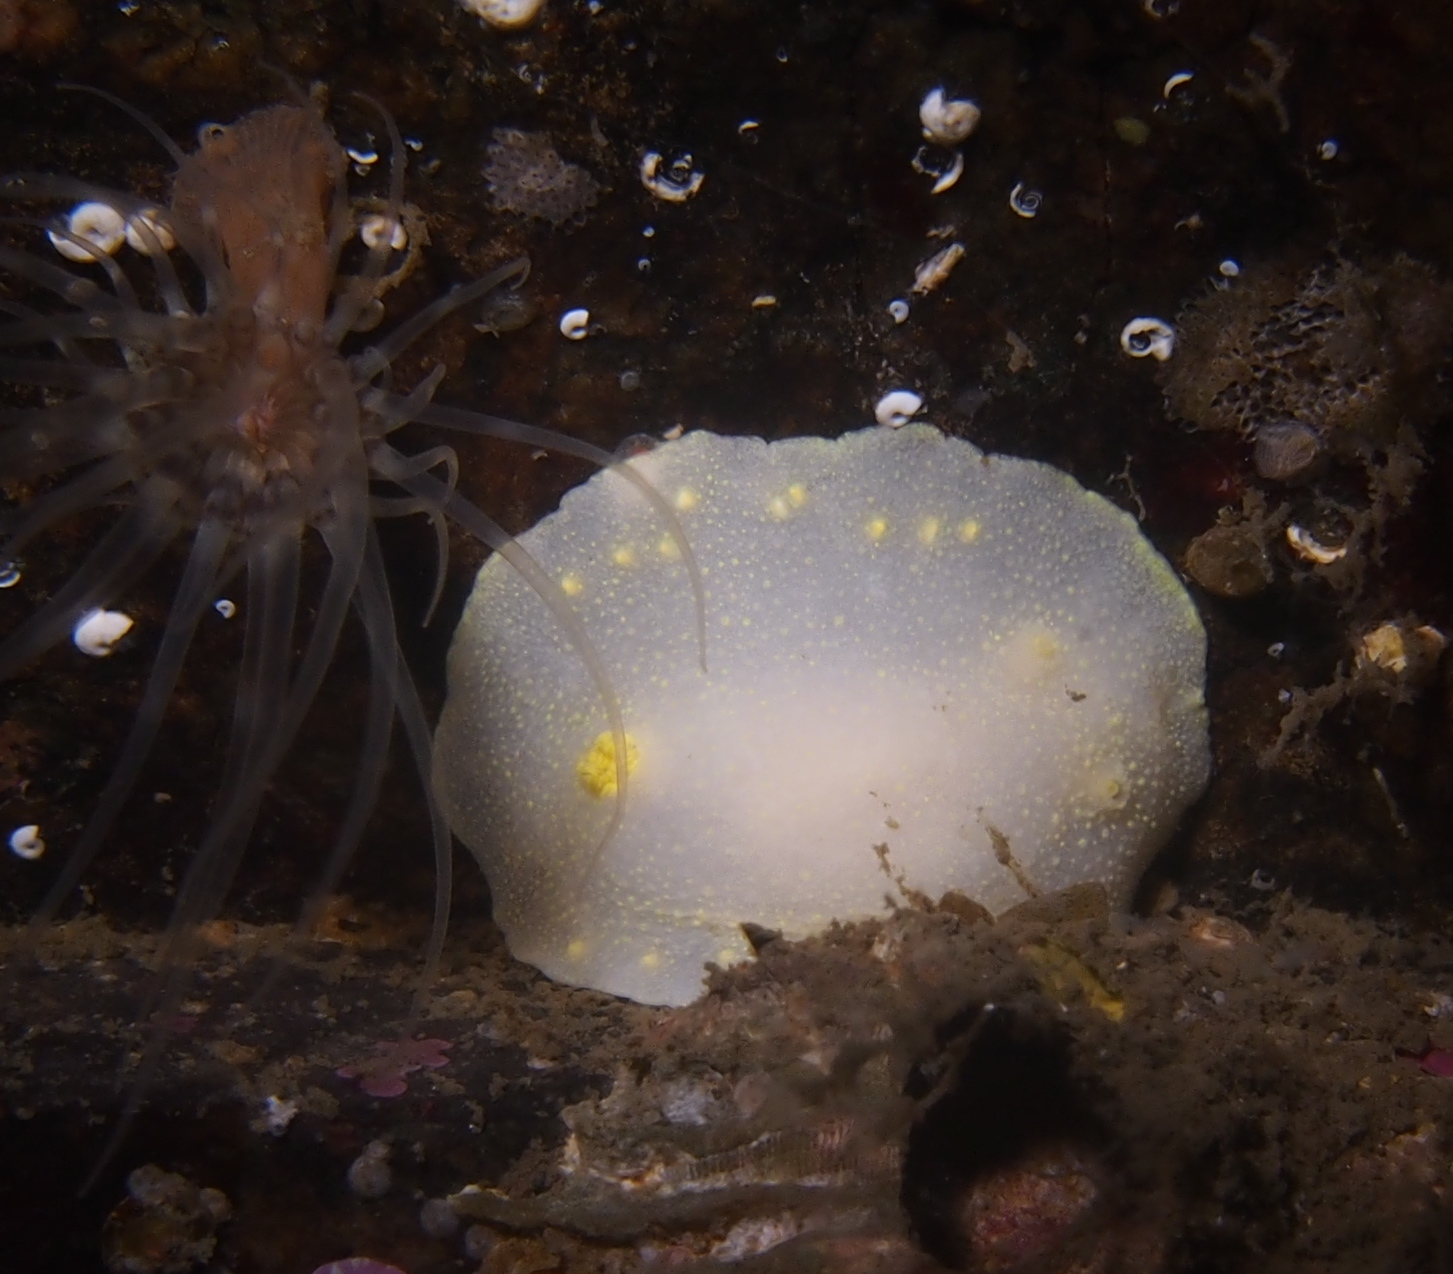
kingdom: Animalia
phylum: Mollusca
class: Gastropoda
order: Nudibranchia
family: Cadlinidae
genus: Cadlina
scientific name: Cadlina laevis
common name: White atlantic cadlina
